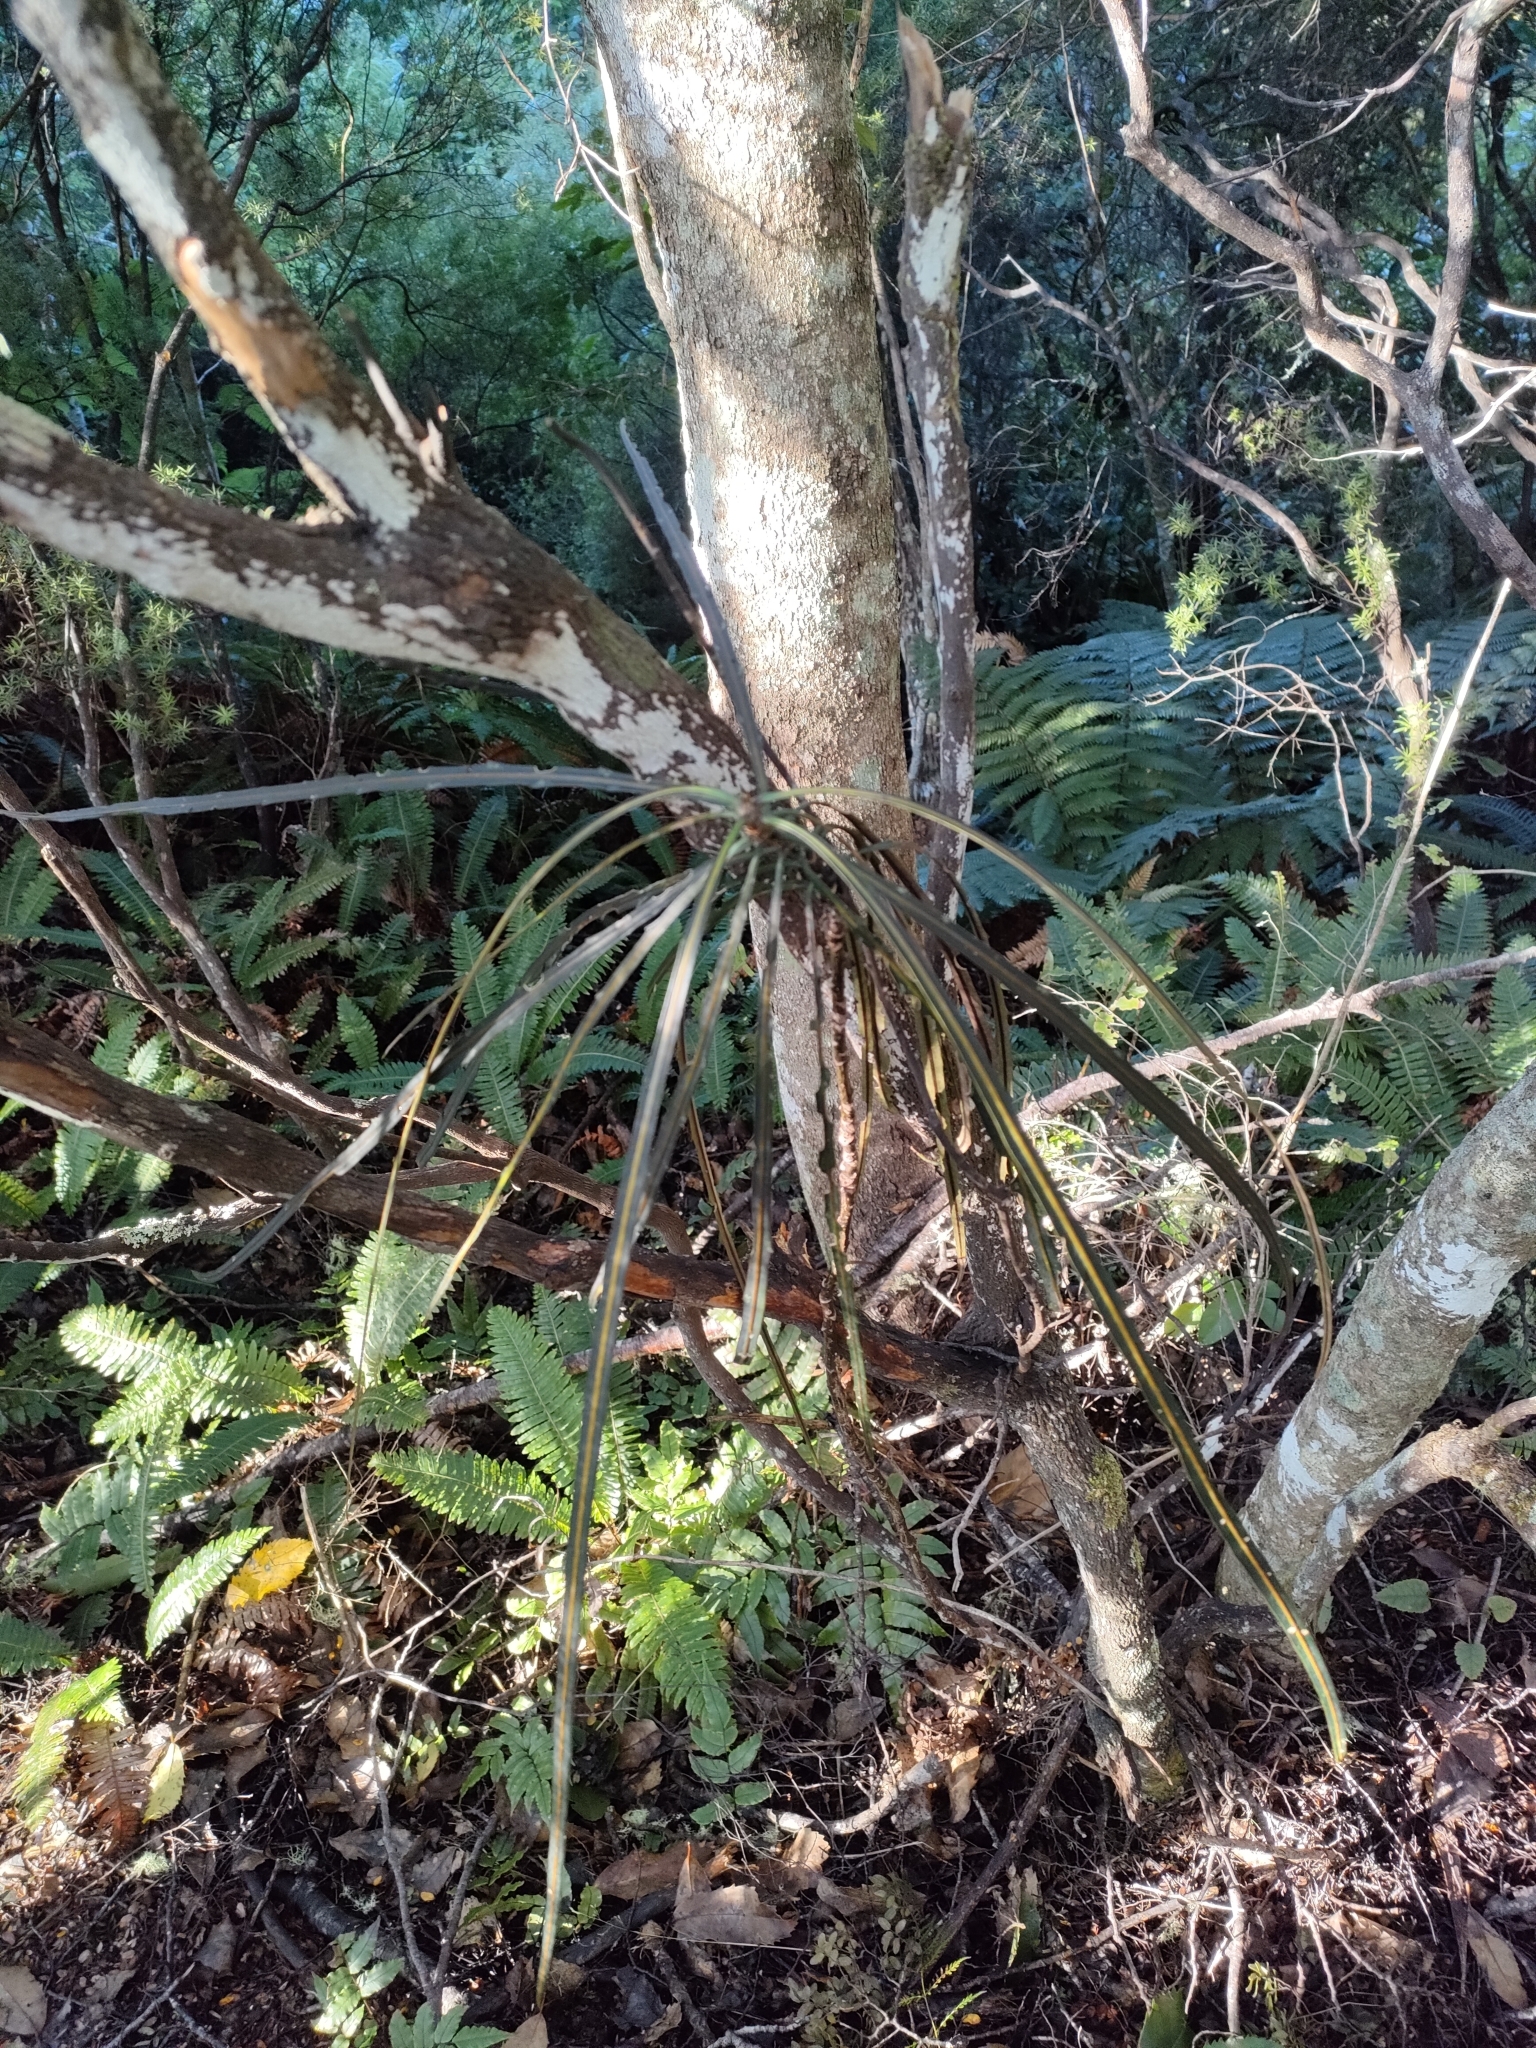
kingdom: Plantae
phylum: Tracheophyta
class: Magnoliopsida
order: Apiales
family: Araliaceae
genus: Pseudopanax
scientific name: Pseudopanax crassifolius
